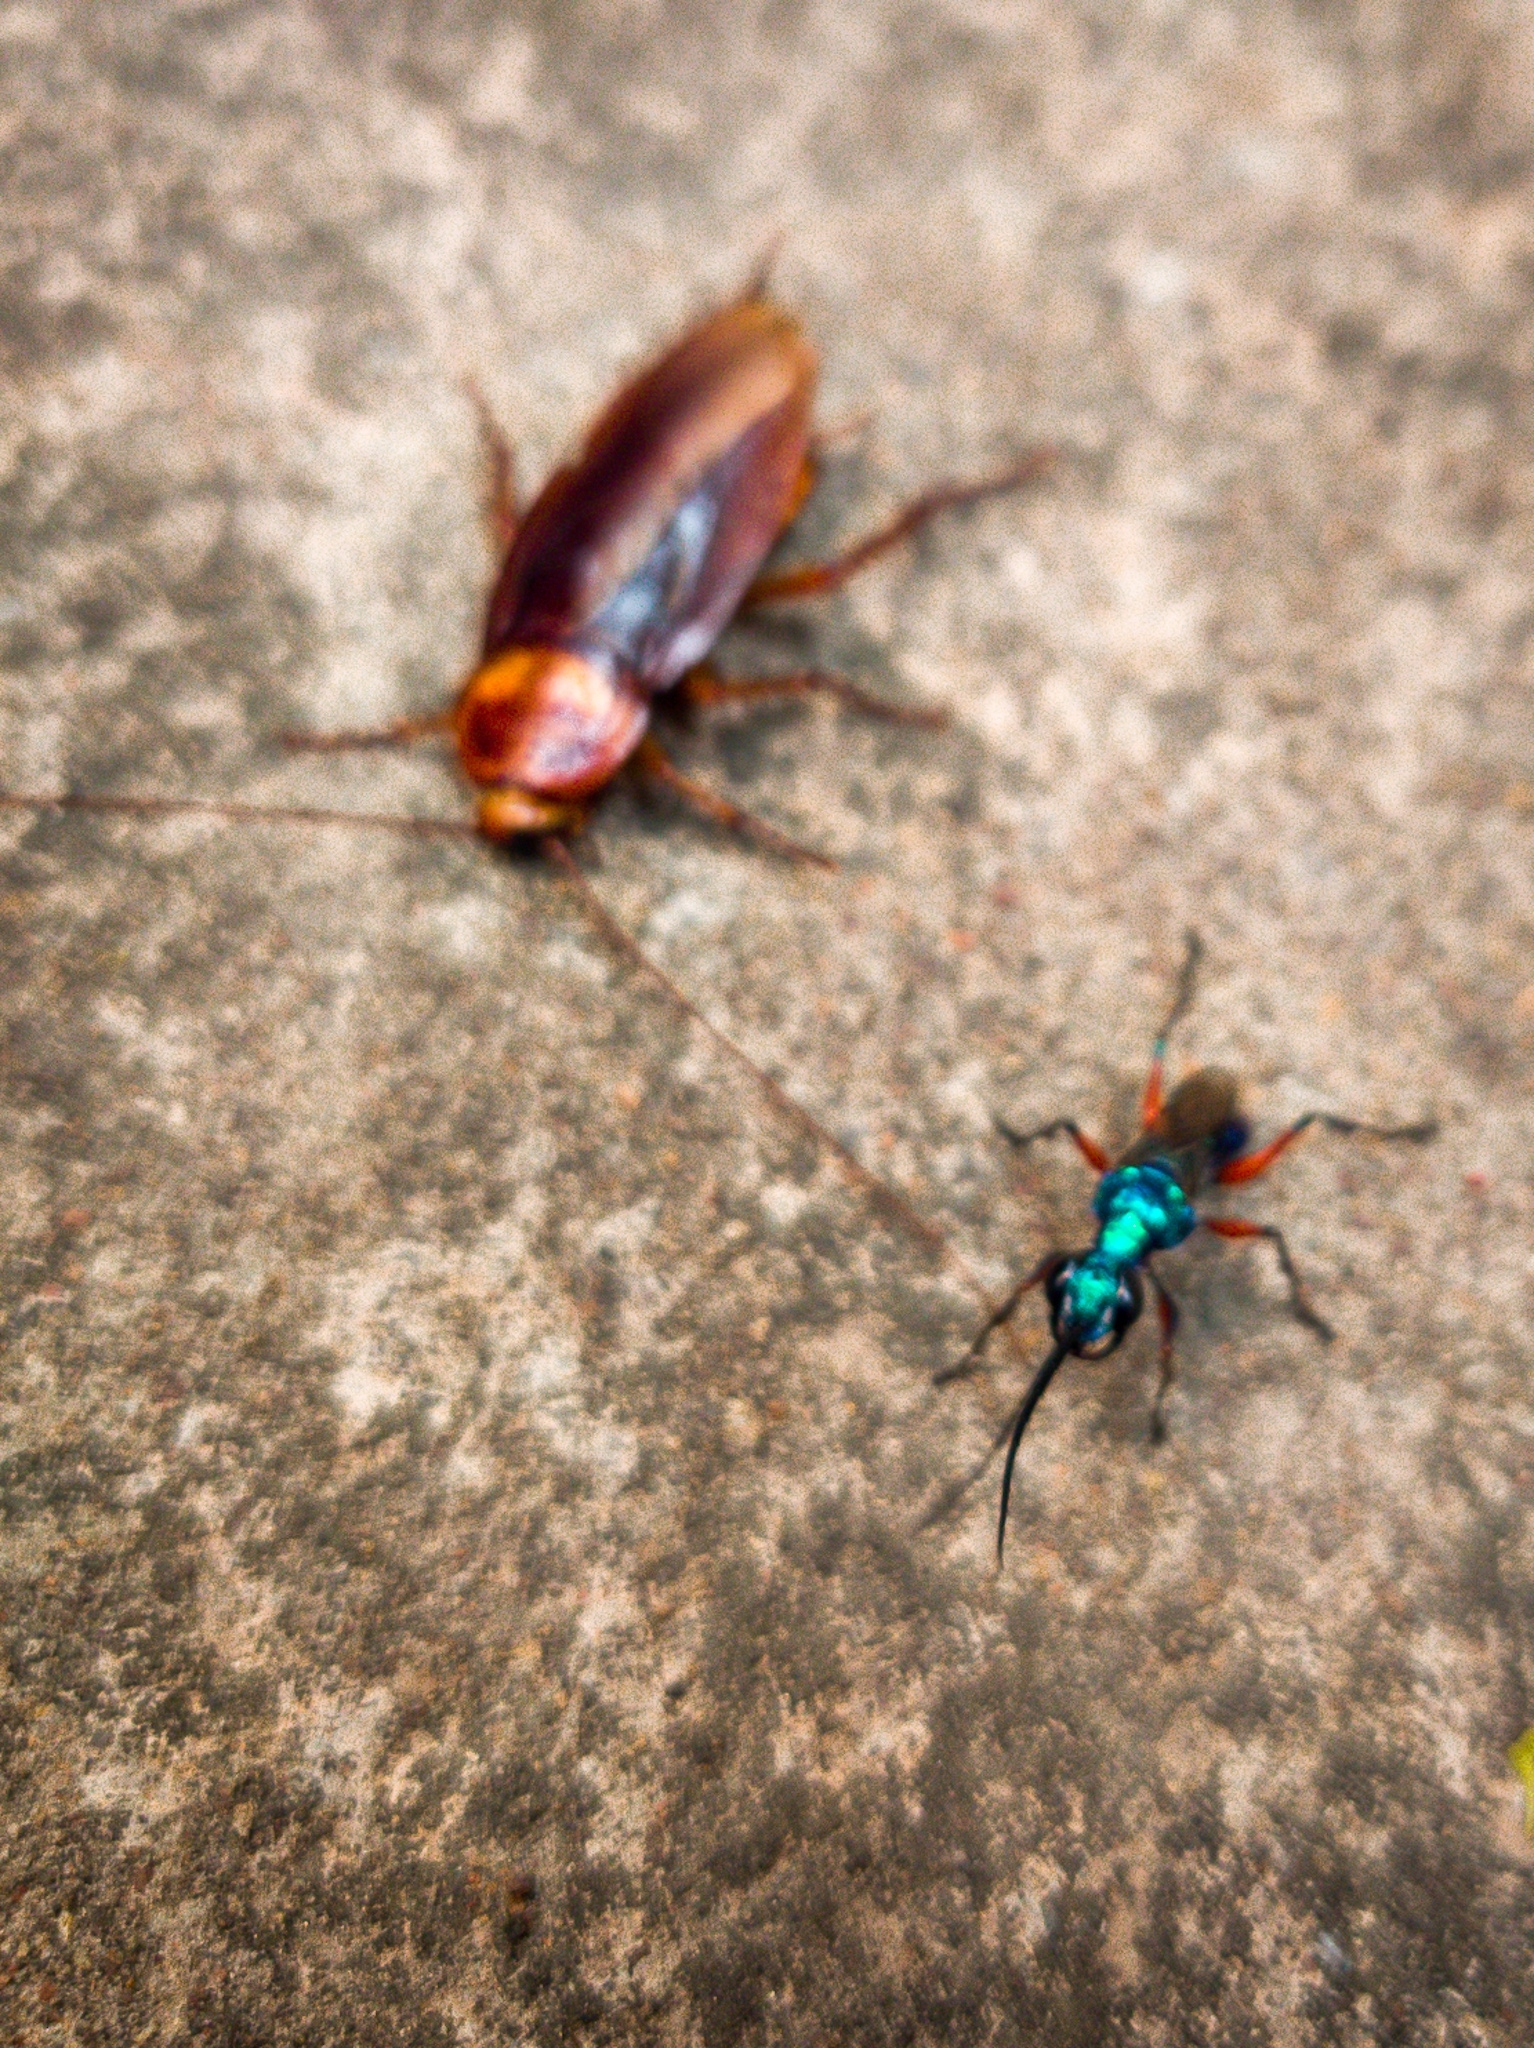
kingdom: Animalia
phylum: Arthropoda
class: Insecta
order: Hymenoptera
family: Ampulicidae
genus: Ampulex
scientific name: Ampulex compressa
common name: Emerald cockroach wasp
